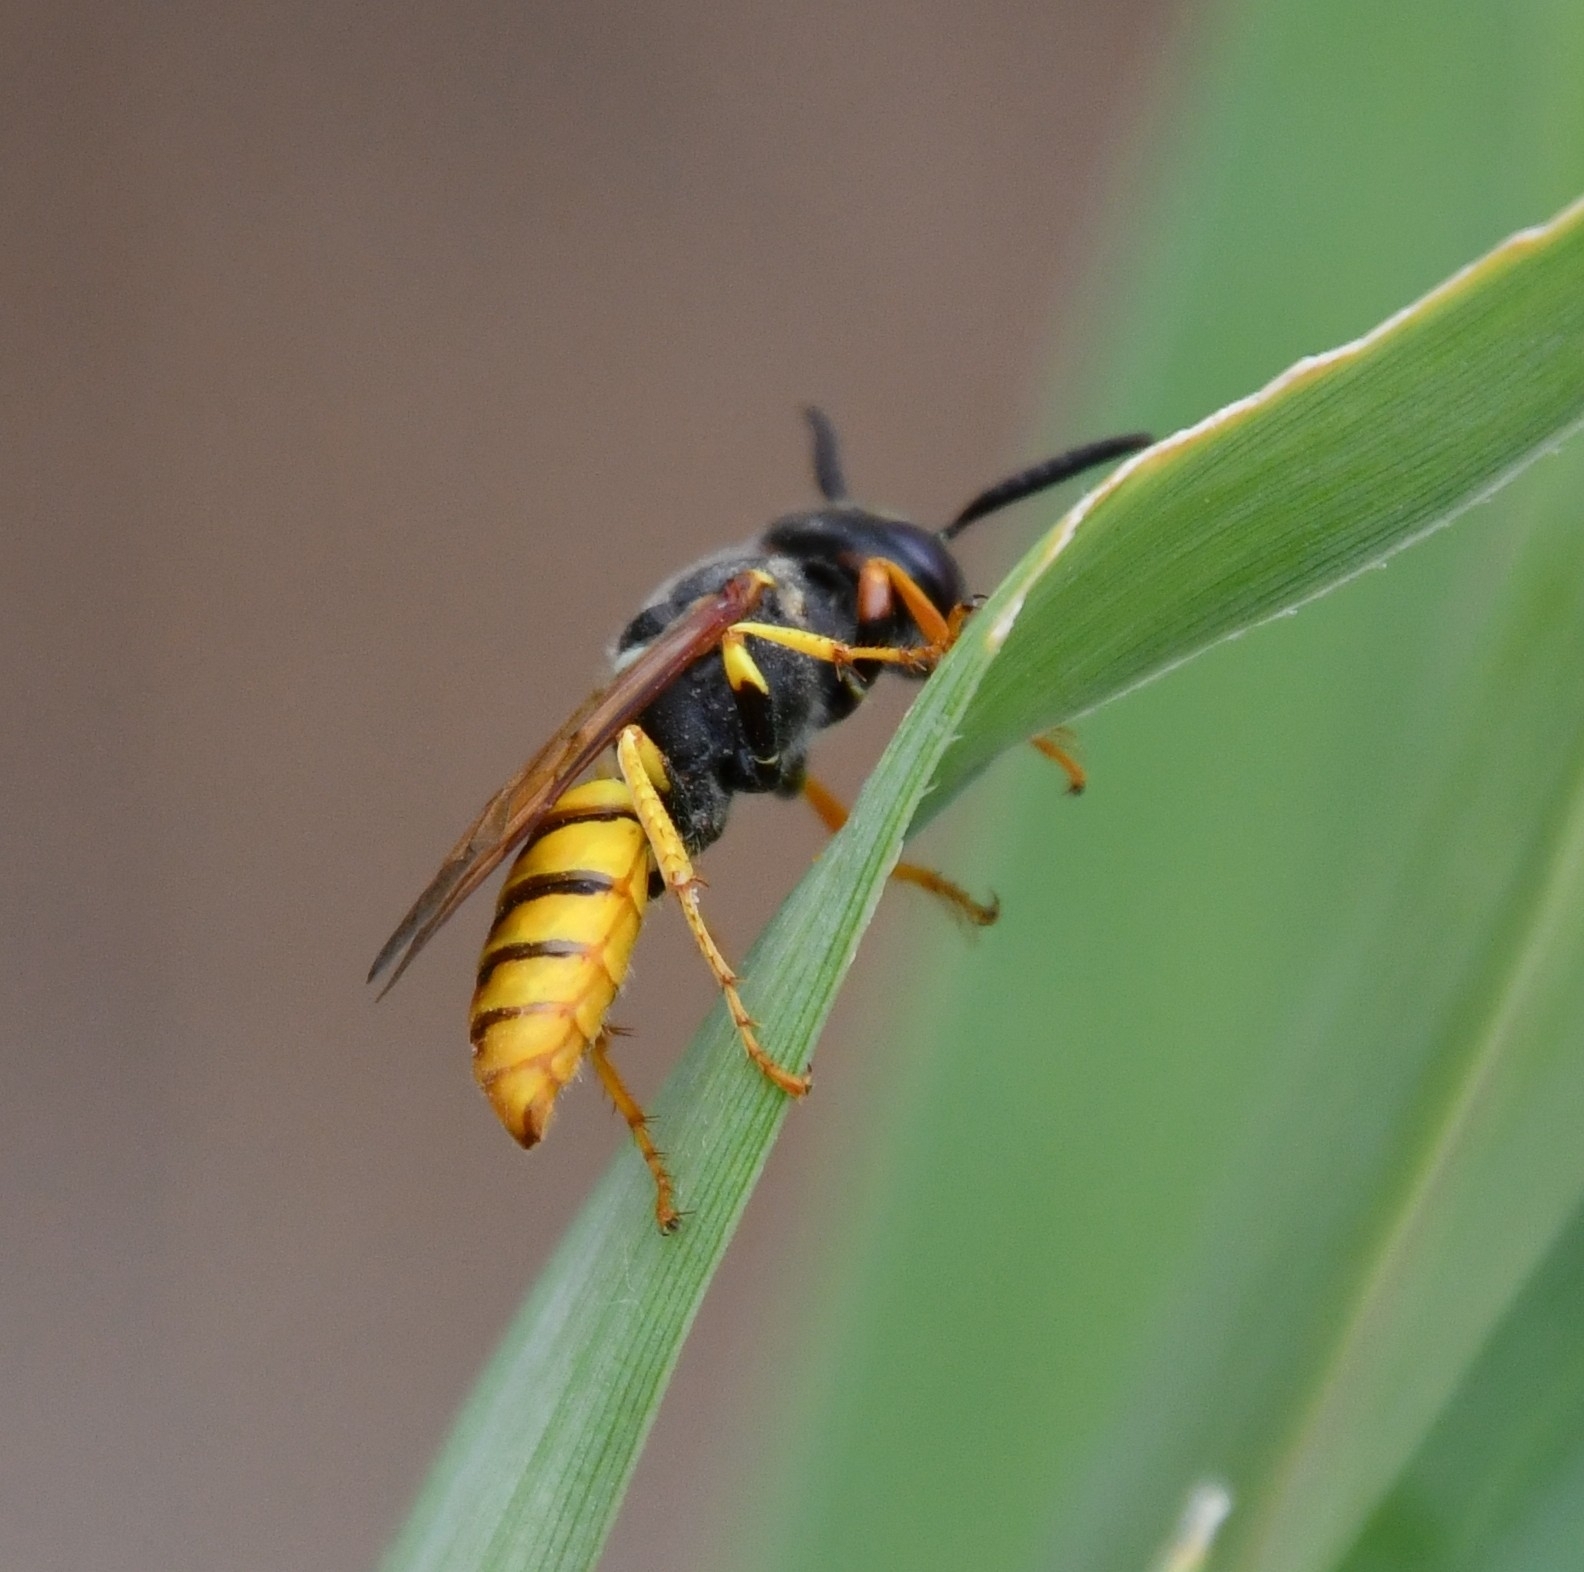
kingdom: Animalia
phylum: Arthropoda
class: Insecta
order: Hymenoptera
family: Crabronidae
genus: Philanthus
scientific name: Philanthus triangulum
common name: Bee wolf
